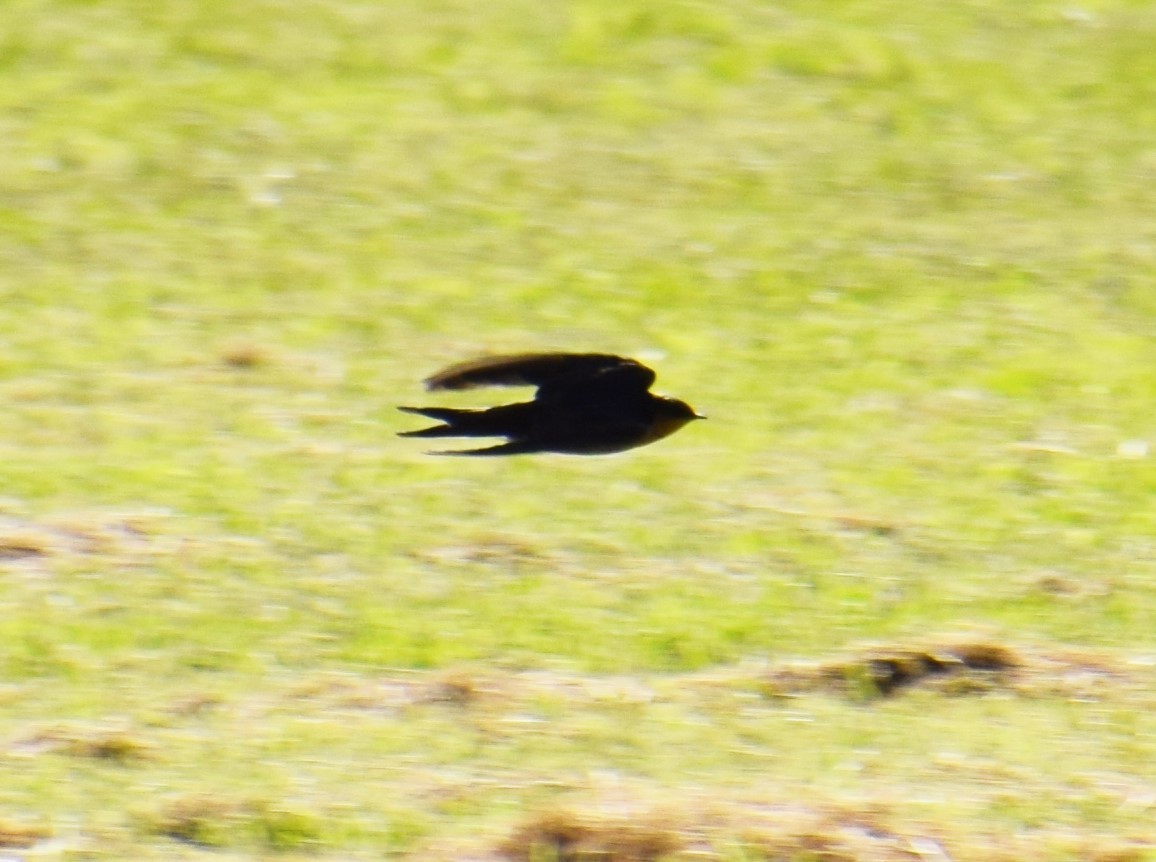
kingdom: Animalia
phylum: Chordata
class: Aves
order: Passeriformes
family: Hirundinidae
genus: Hirundo
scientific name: Hirundo neoxena
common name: Welcome swallow
